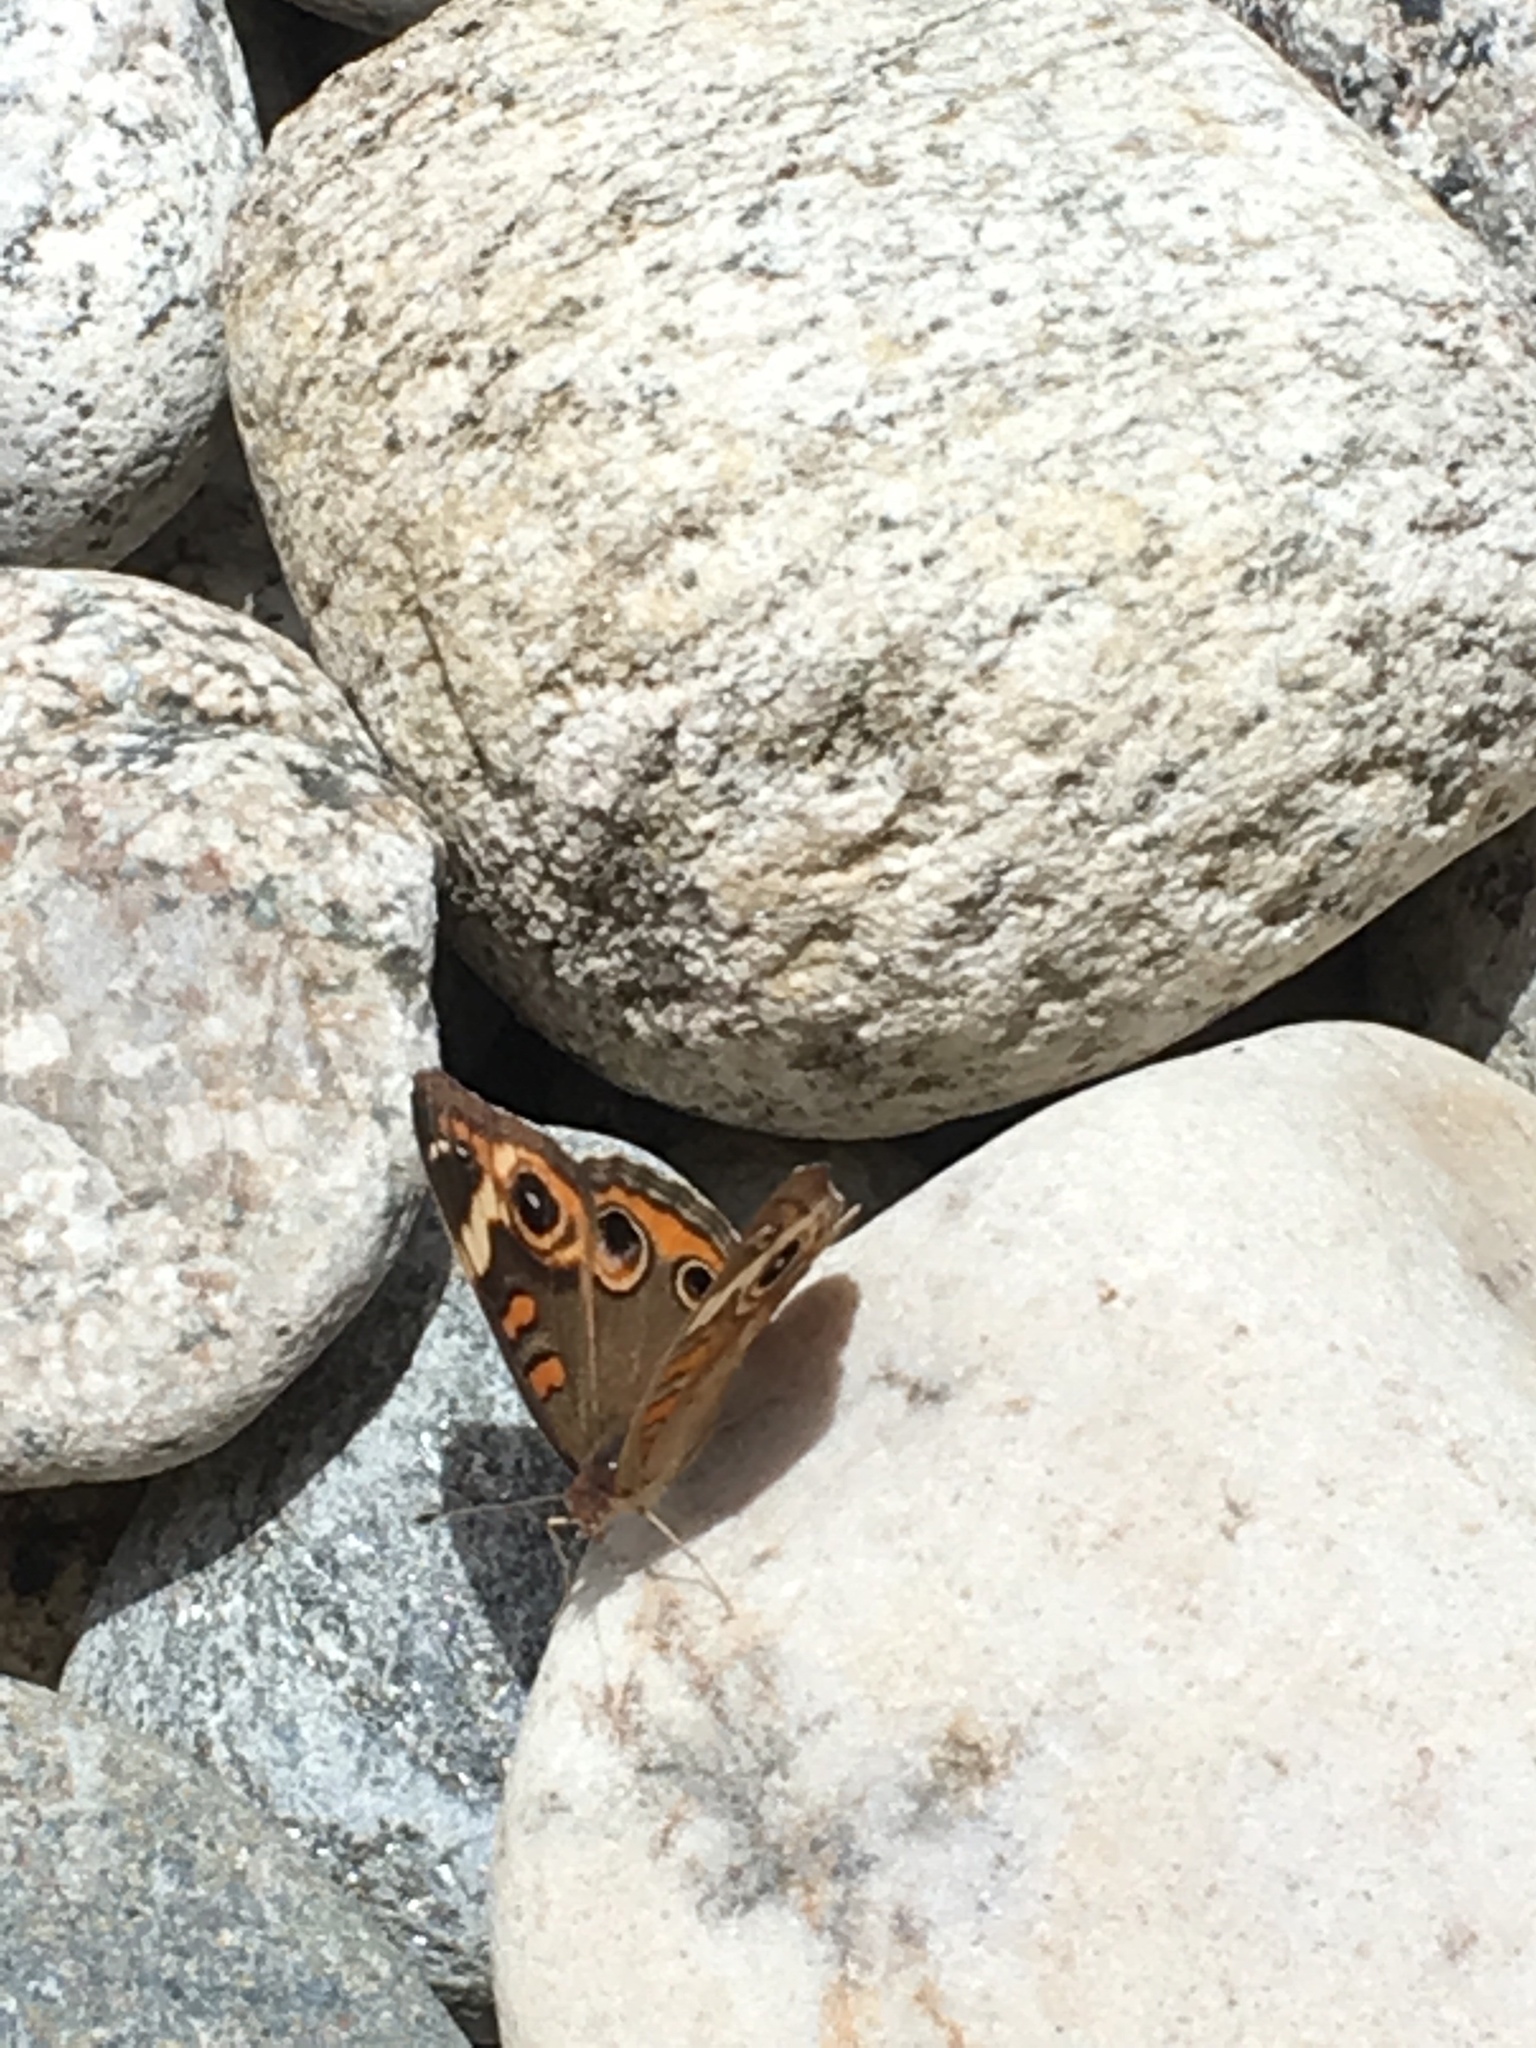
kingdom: Animalia
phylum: Arthropoda
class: Insecta
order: Lepidoptera
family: Nymphalidae
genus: Junonia
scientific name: Junonia coenia
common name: Common buckeye
